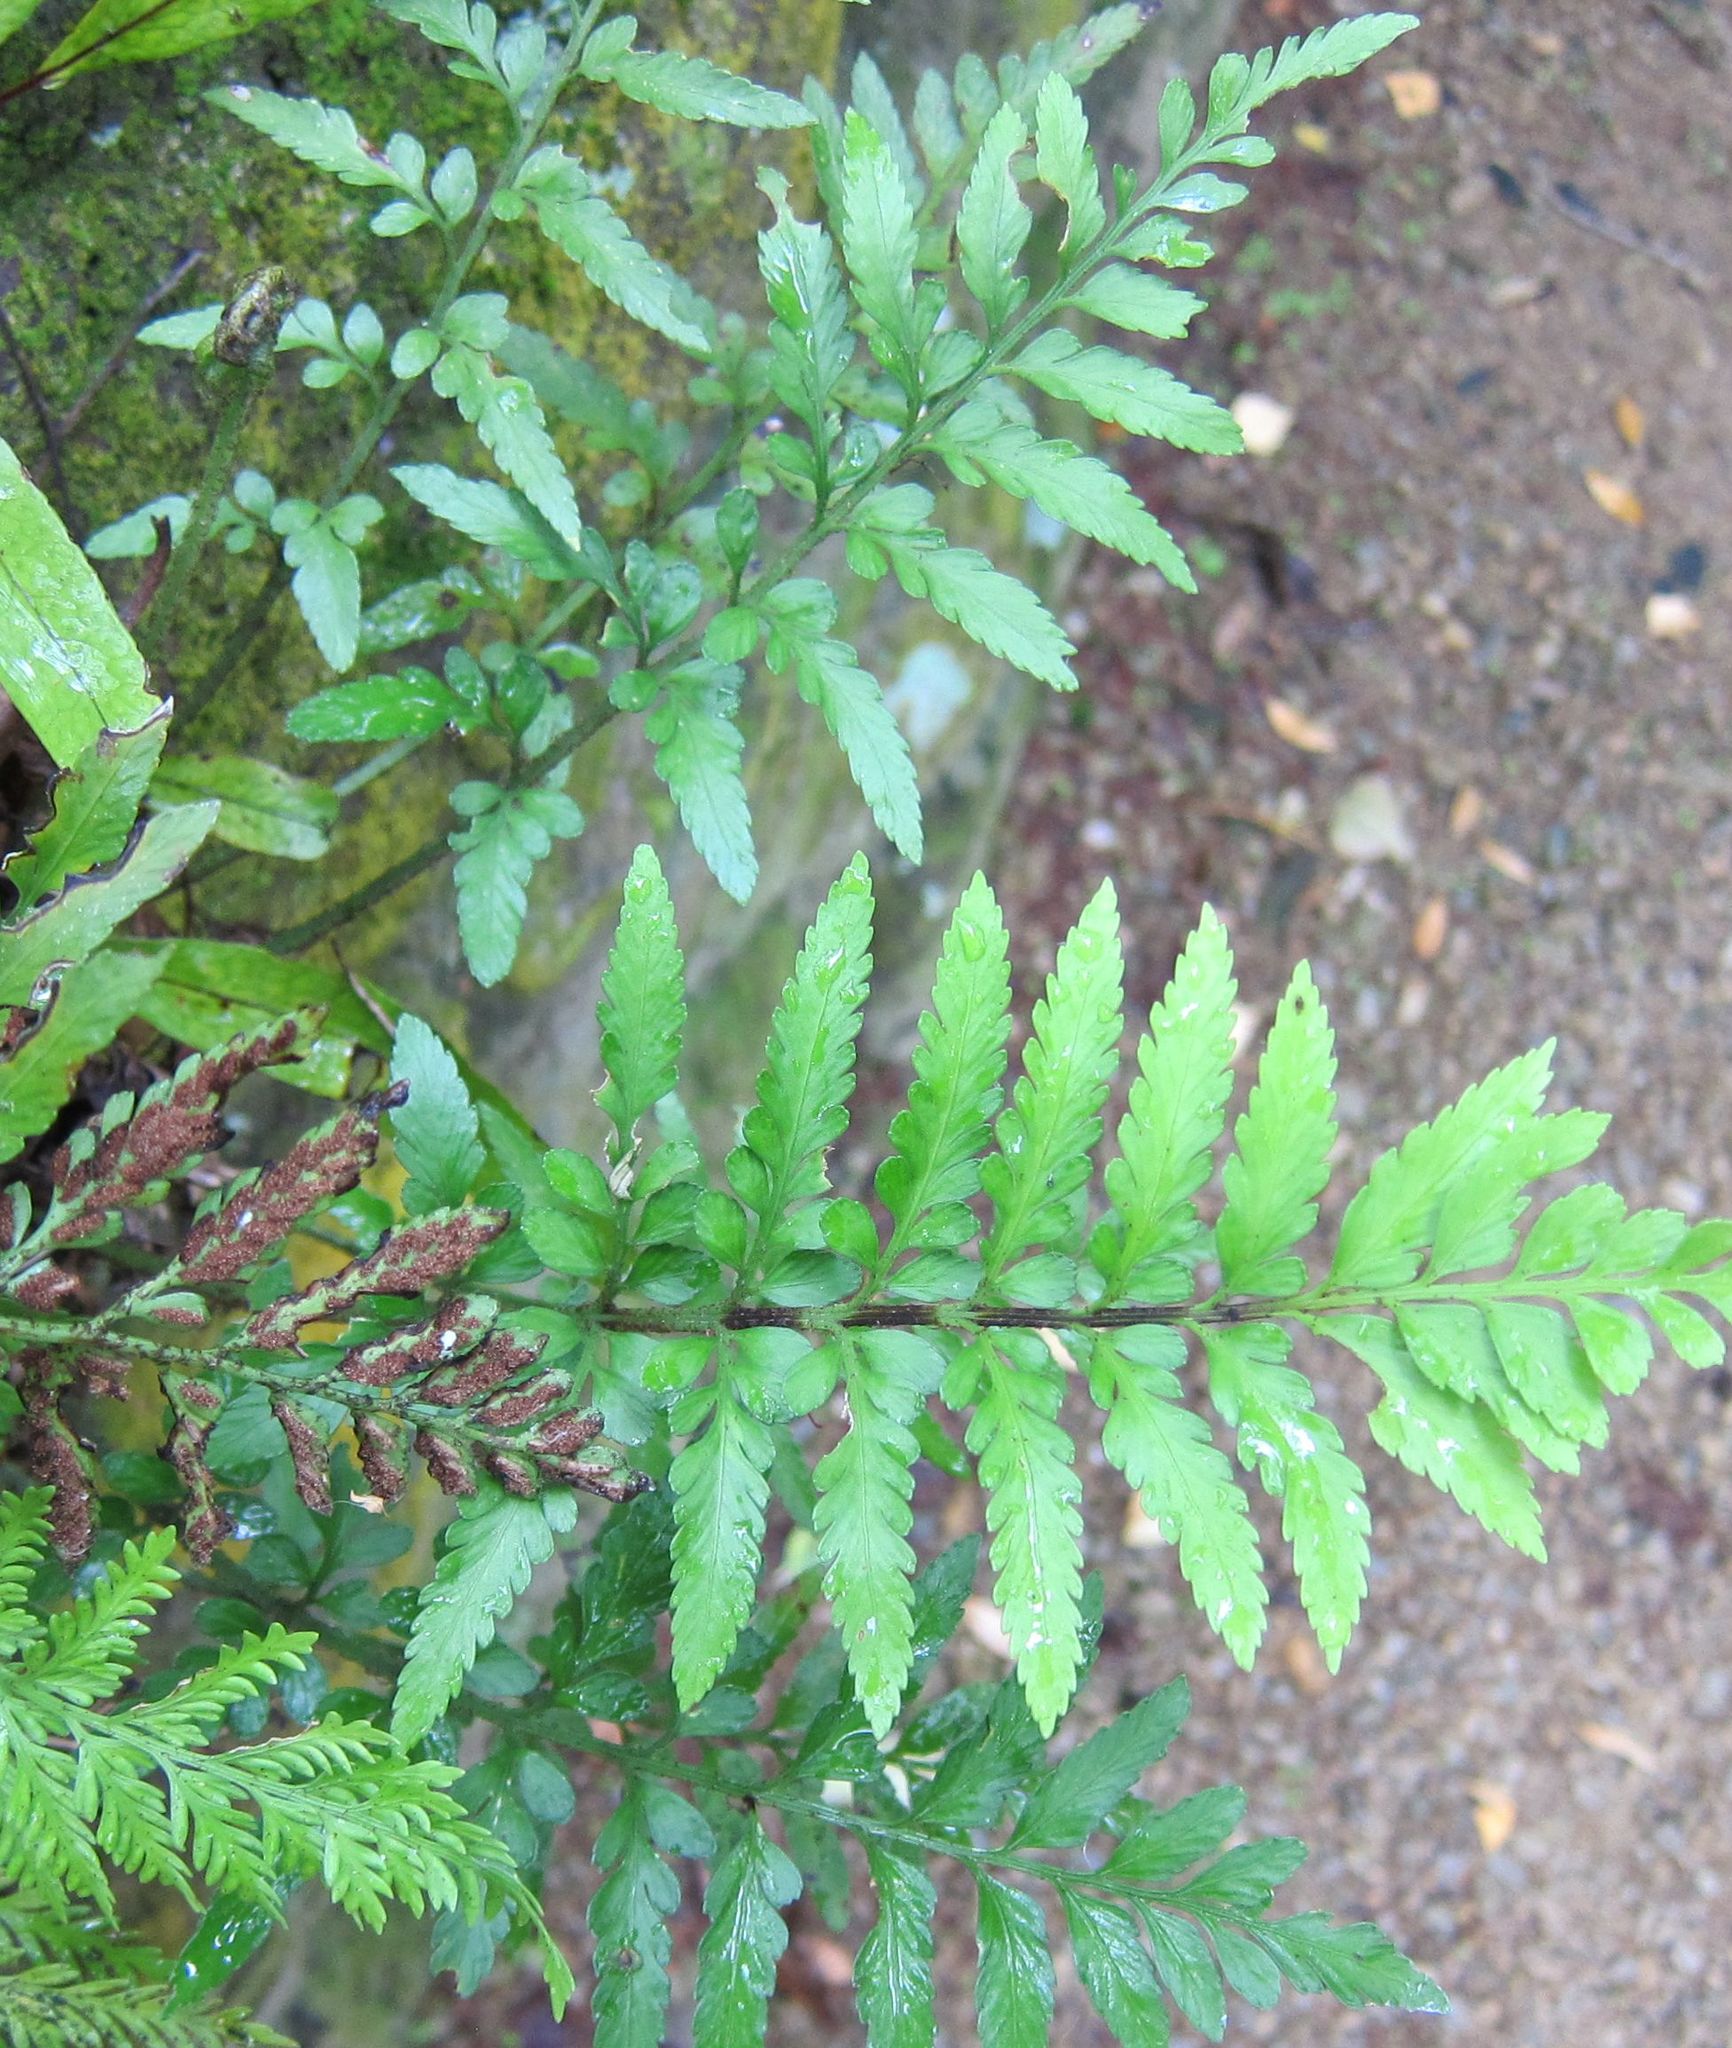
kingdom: Plantae
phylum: Tracheophyta
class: Polypodiopsida
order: Polypodiales
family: Aspleniaceae
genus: Asplenium
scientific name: Asplenium lyallii
